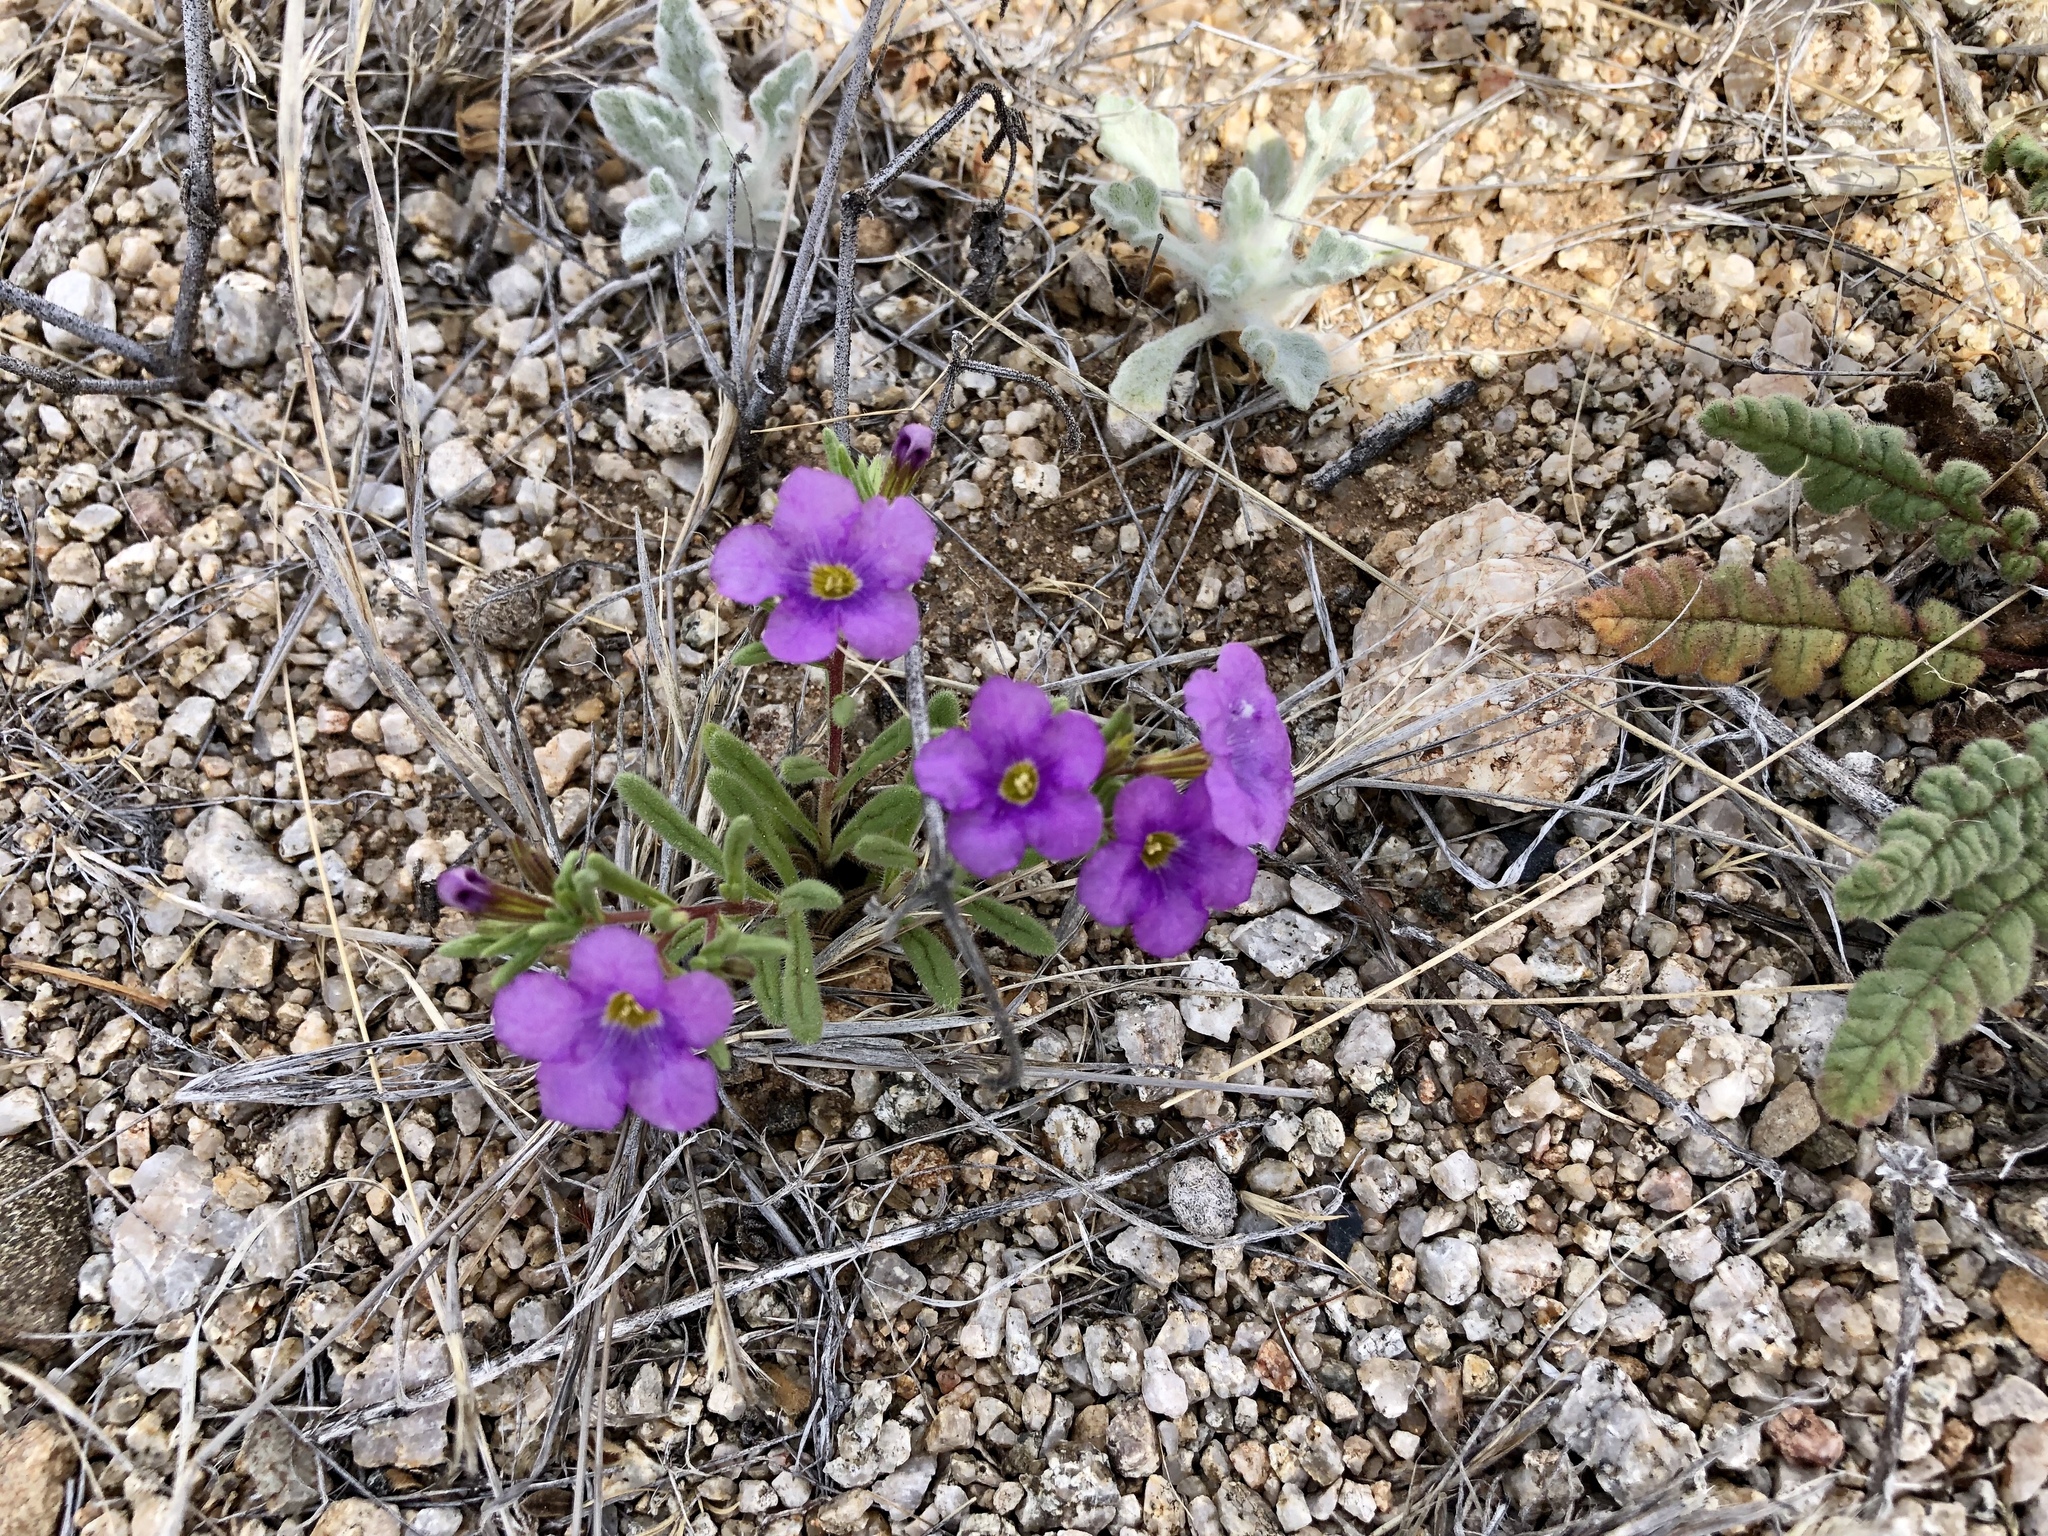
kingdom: Plantae
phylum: Tracheophyta
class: Magnoliopsida
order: Boraginales
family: Namaceae
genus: Nama
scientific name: Nama hispida
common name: Bristly nama
